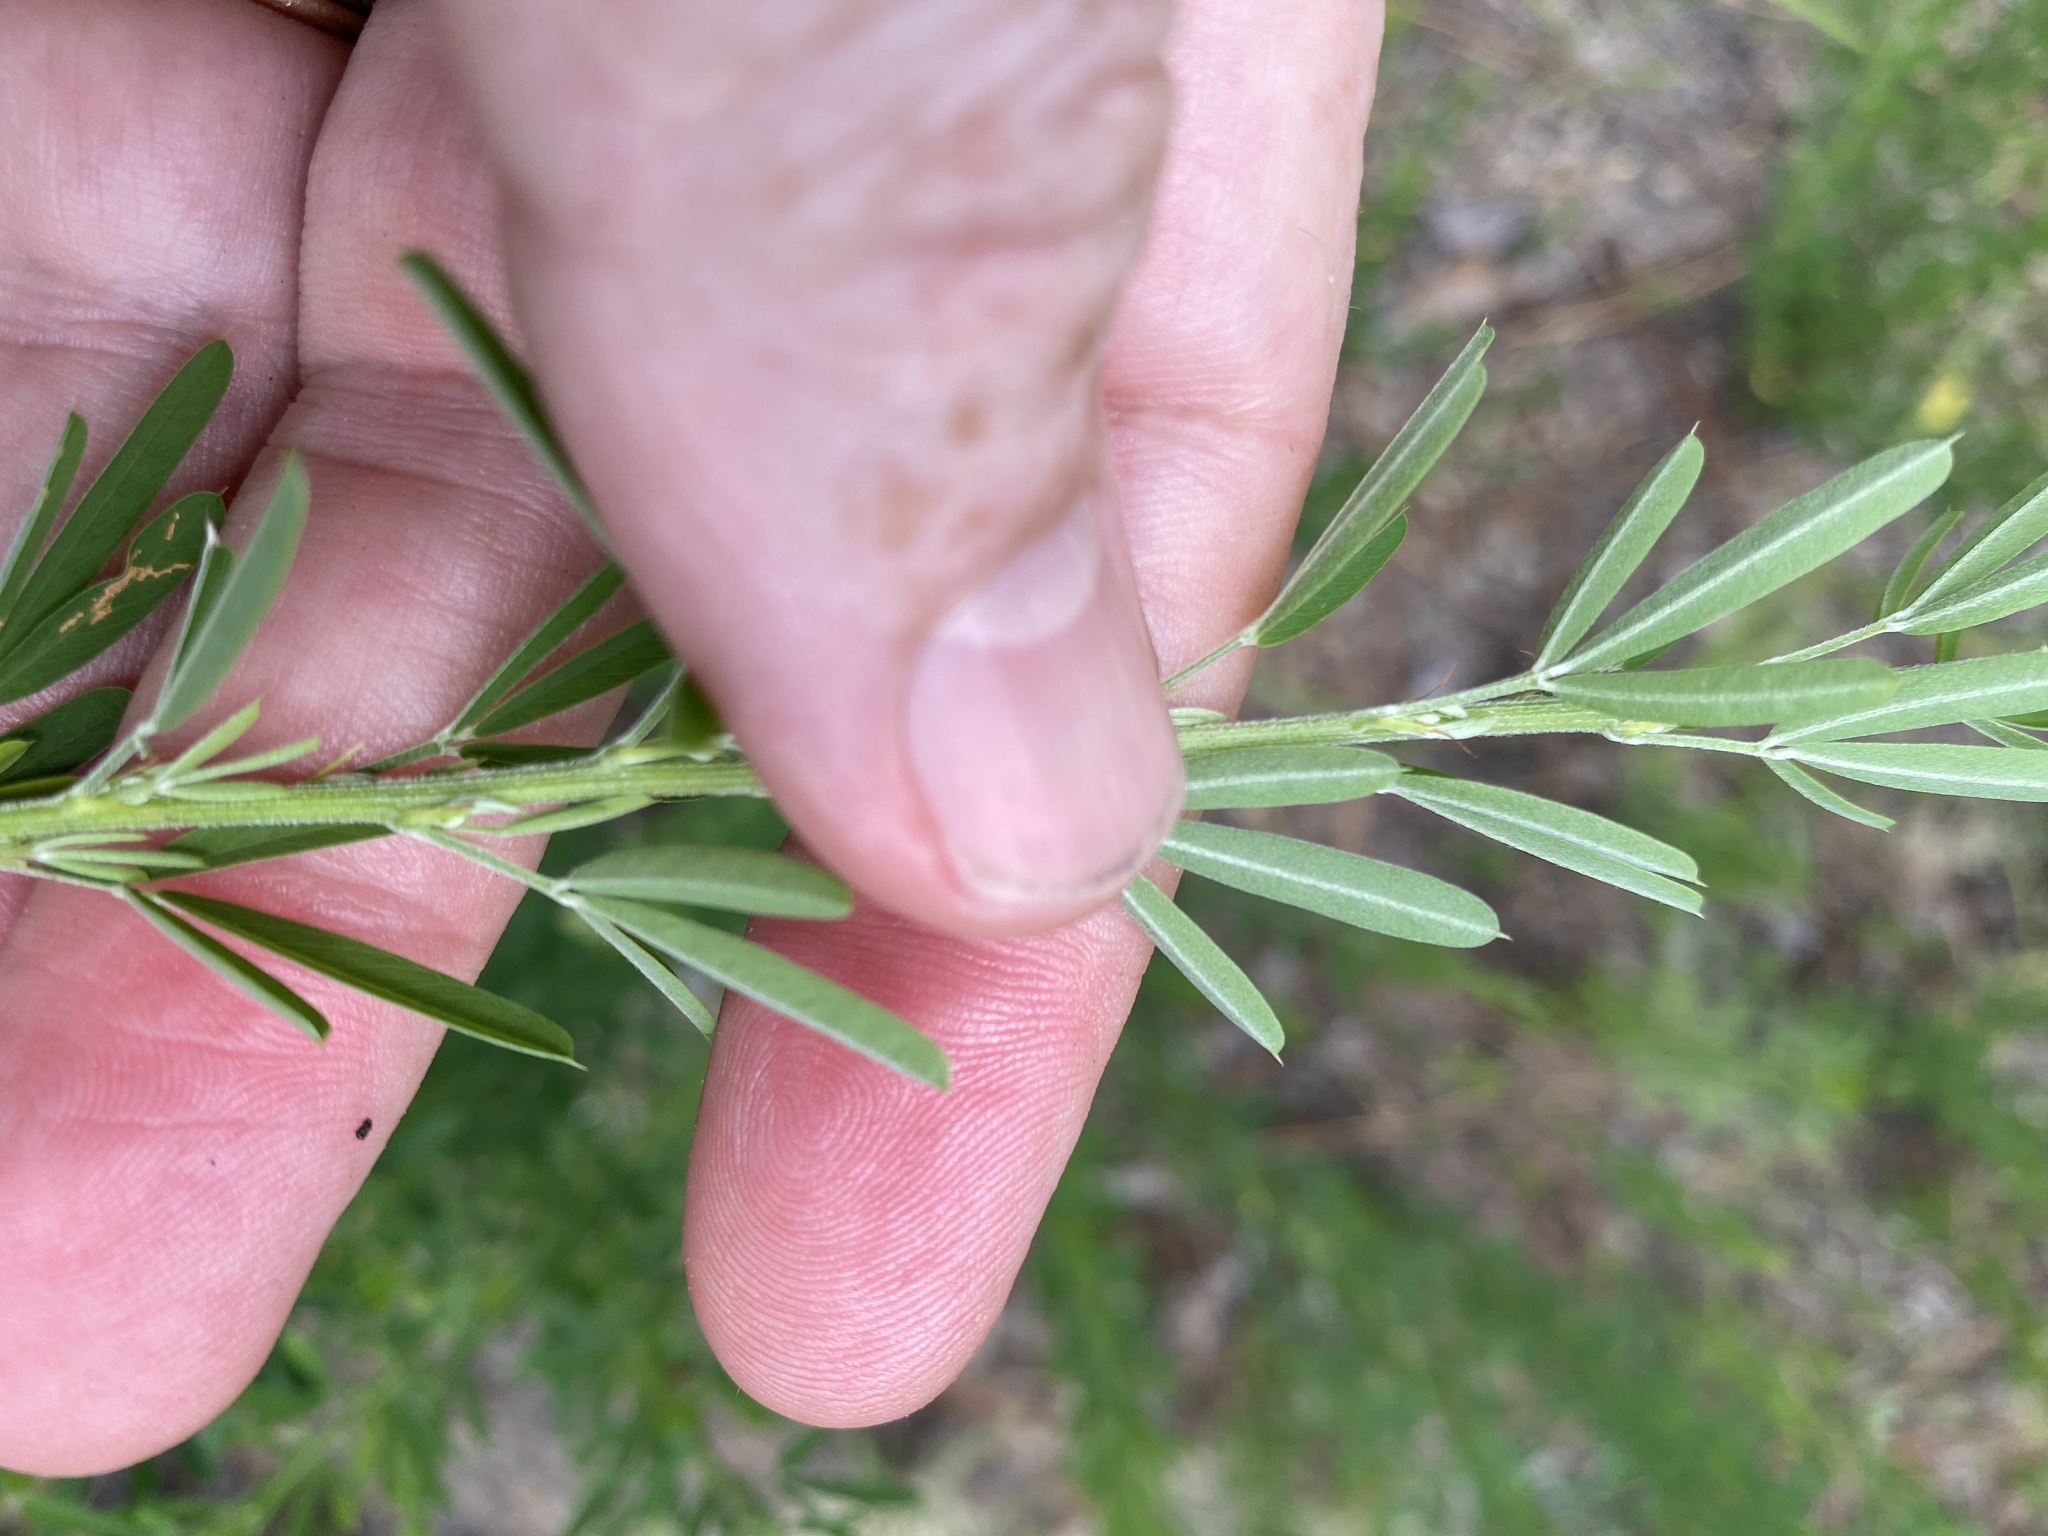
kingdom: Plantae
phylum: Tracheophyta
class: Magnoliopsida
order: Fabales
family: Fabaceae
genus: Lespedeza
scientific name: Lespedeza cuneata
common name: Chinese bush-clover
